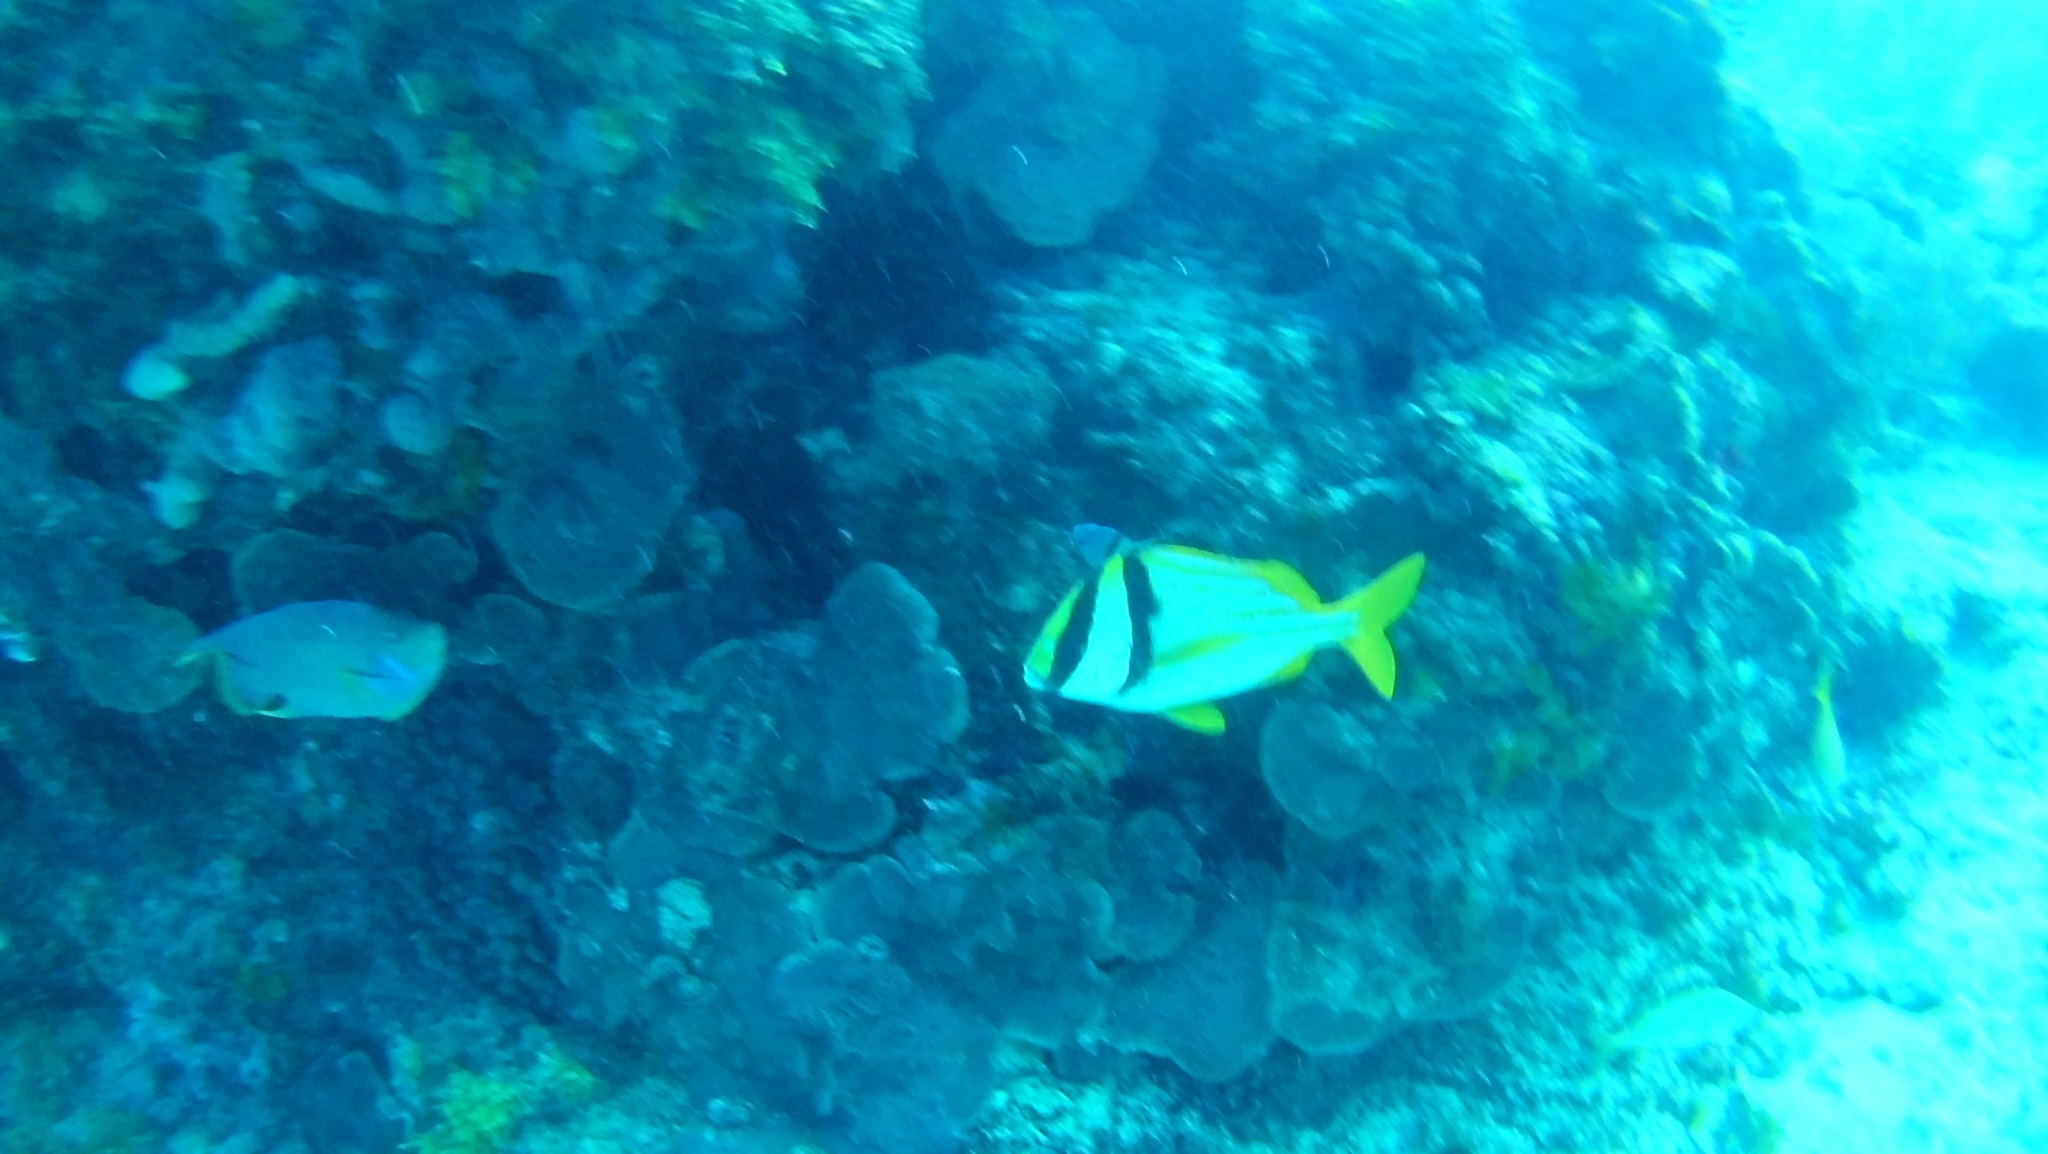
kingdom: Animalia
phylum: Chordata
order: Perciformes
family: Haemulidae
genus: Anisotremus
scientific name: Anisotremus virginicus
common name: Porkfish
